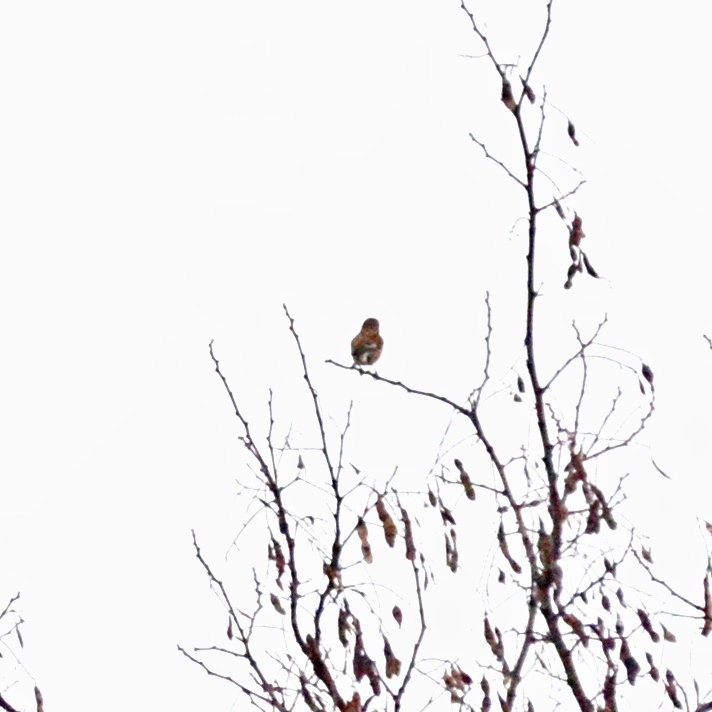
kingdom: Animalia
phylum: Chordata
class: Aves
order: Passeriformes
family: Fringillidae
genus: Linaria
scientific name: Linaria cannabina
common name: Common linnet
